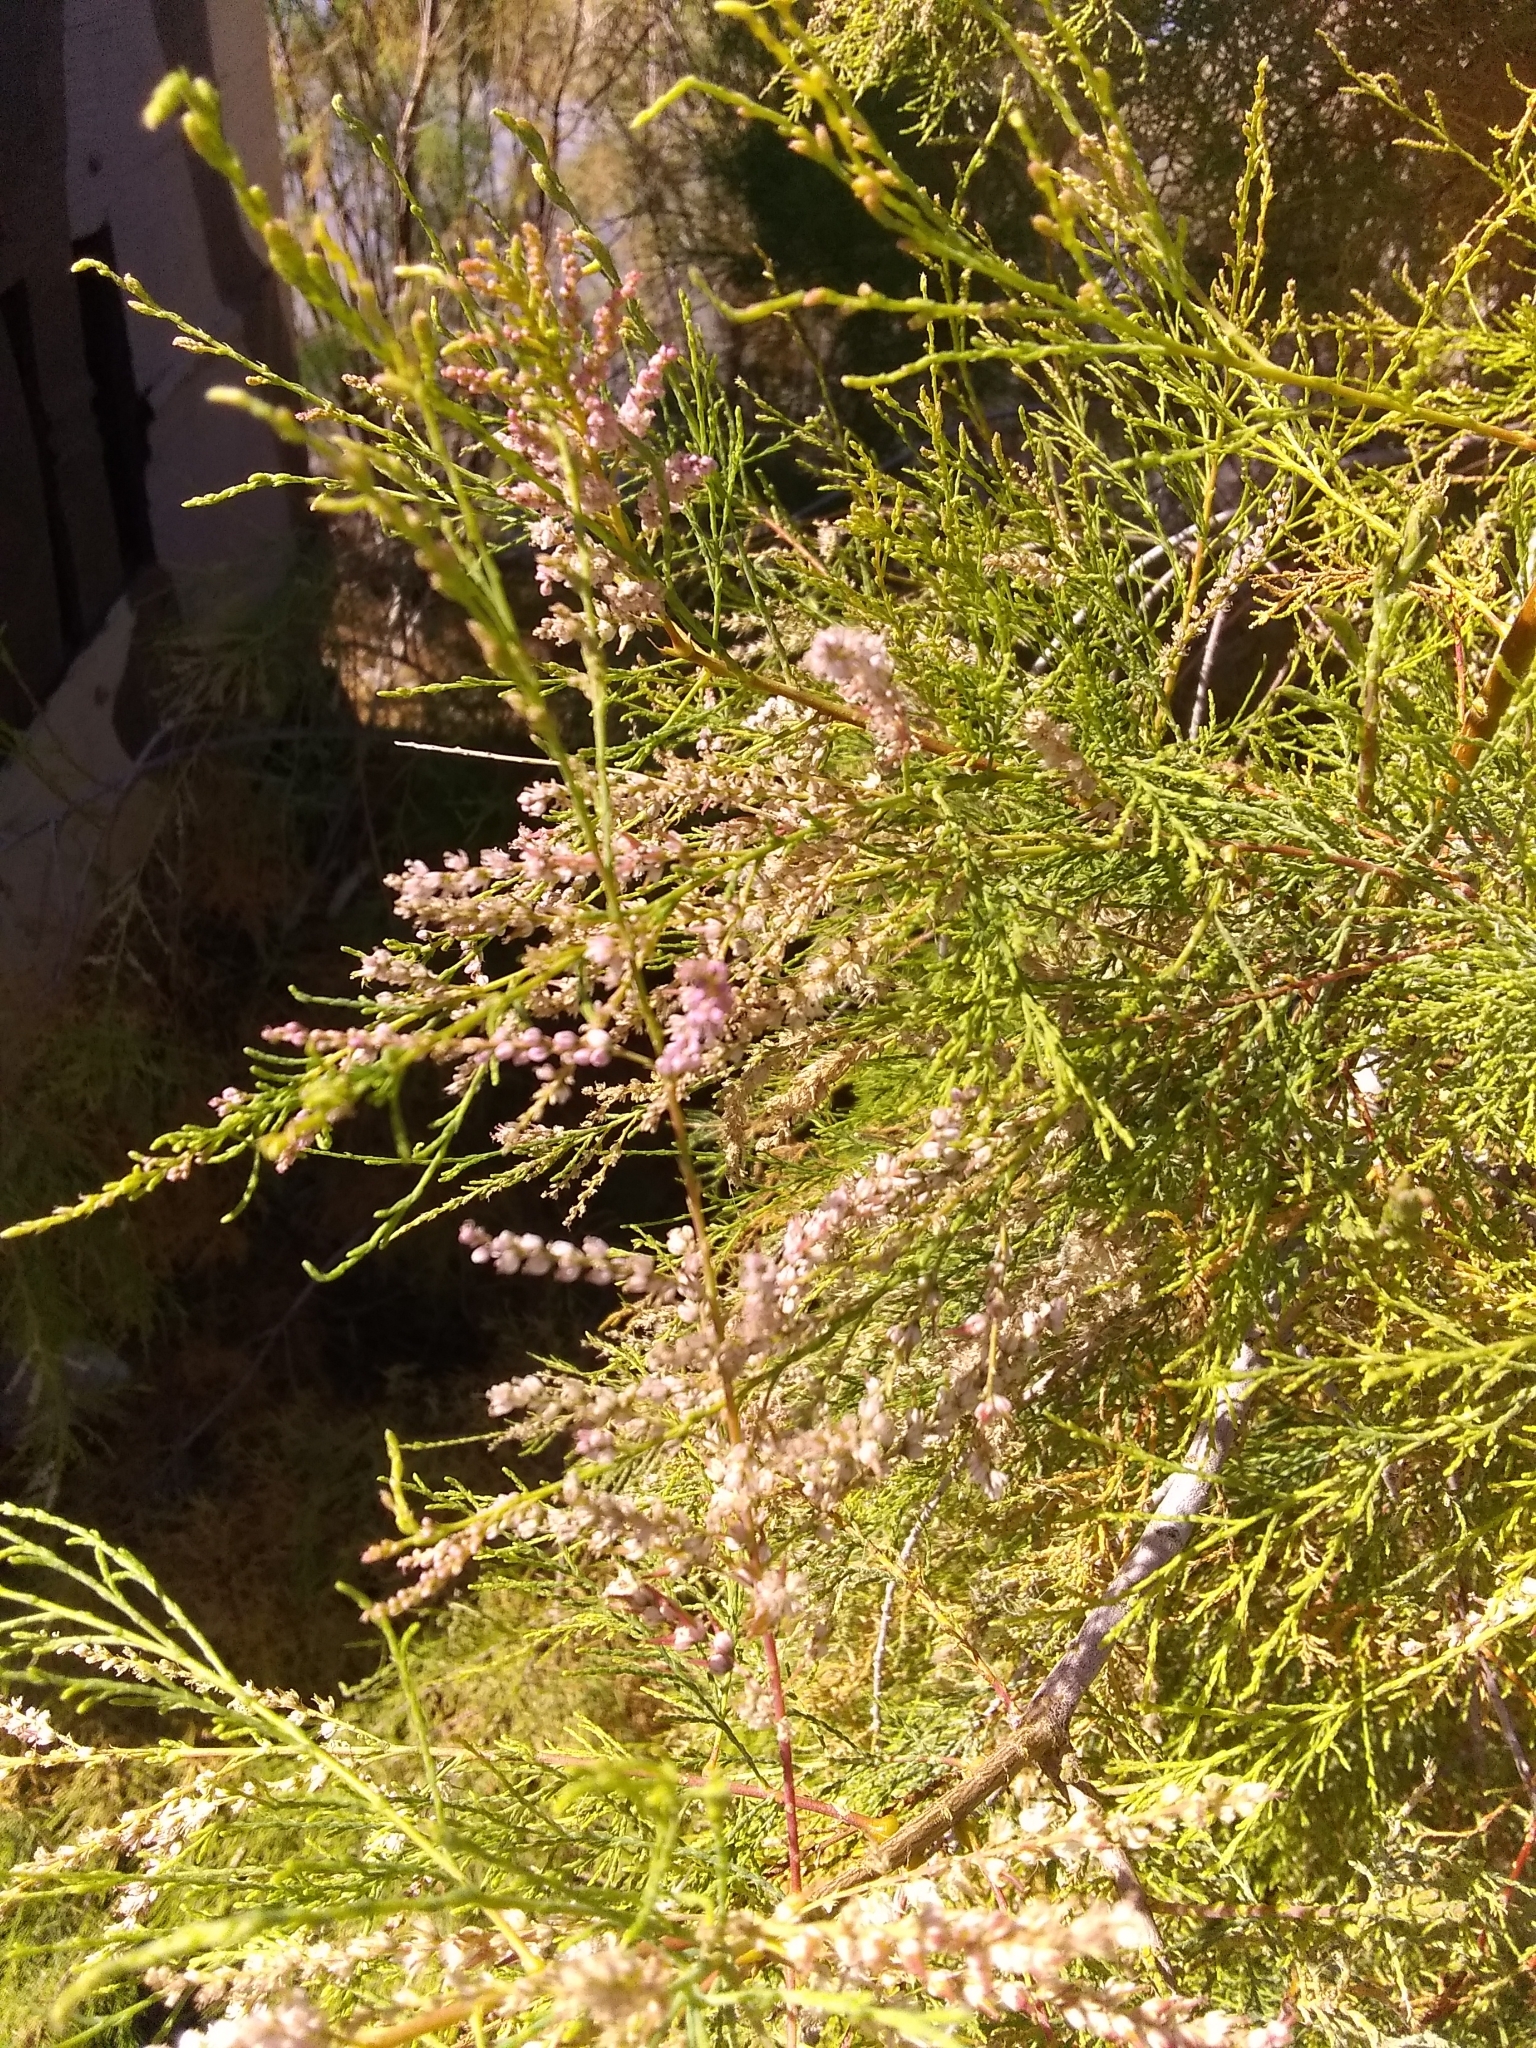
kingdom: Plantae
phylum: Tracheophyta
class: Magnoliopsida
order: Caryophyllales
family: Tamaricaceae
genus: Tamarix
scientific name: Tamarix ramosissima
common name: Pink tamarisk
